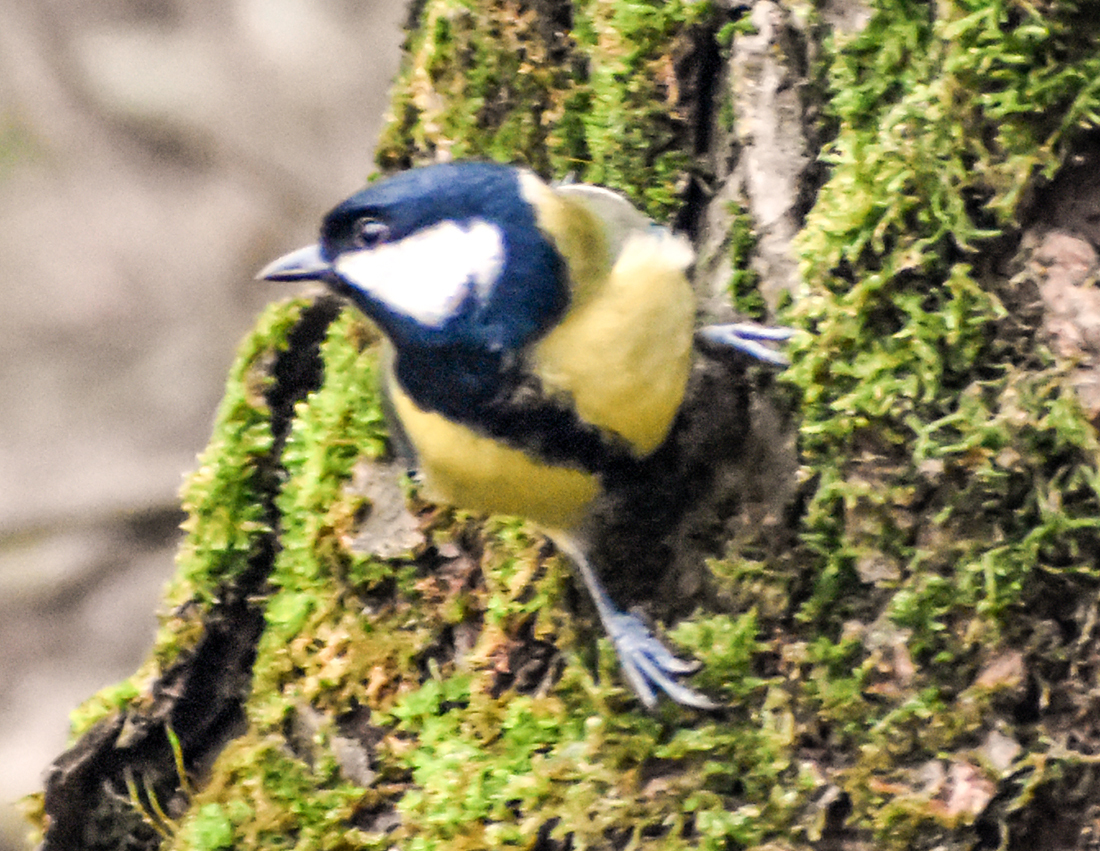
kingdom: Animalia
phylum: Chordata
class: Aves
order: Passeriformes
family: Paridae
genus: Parus
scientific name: Parus major
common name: Great tit
